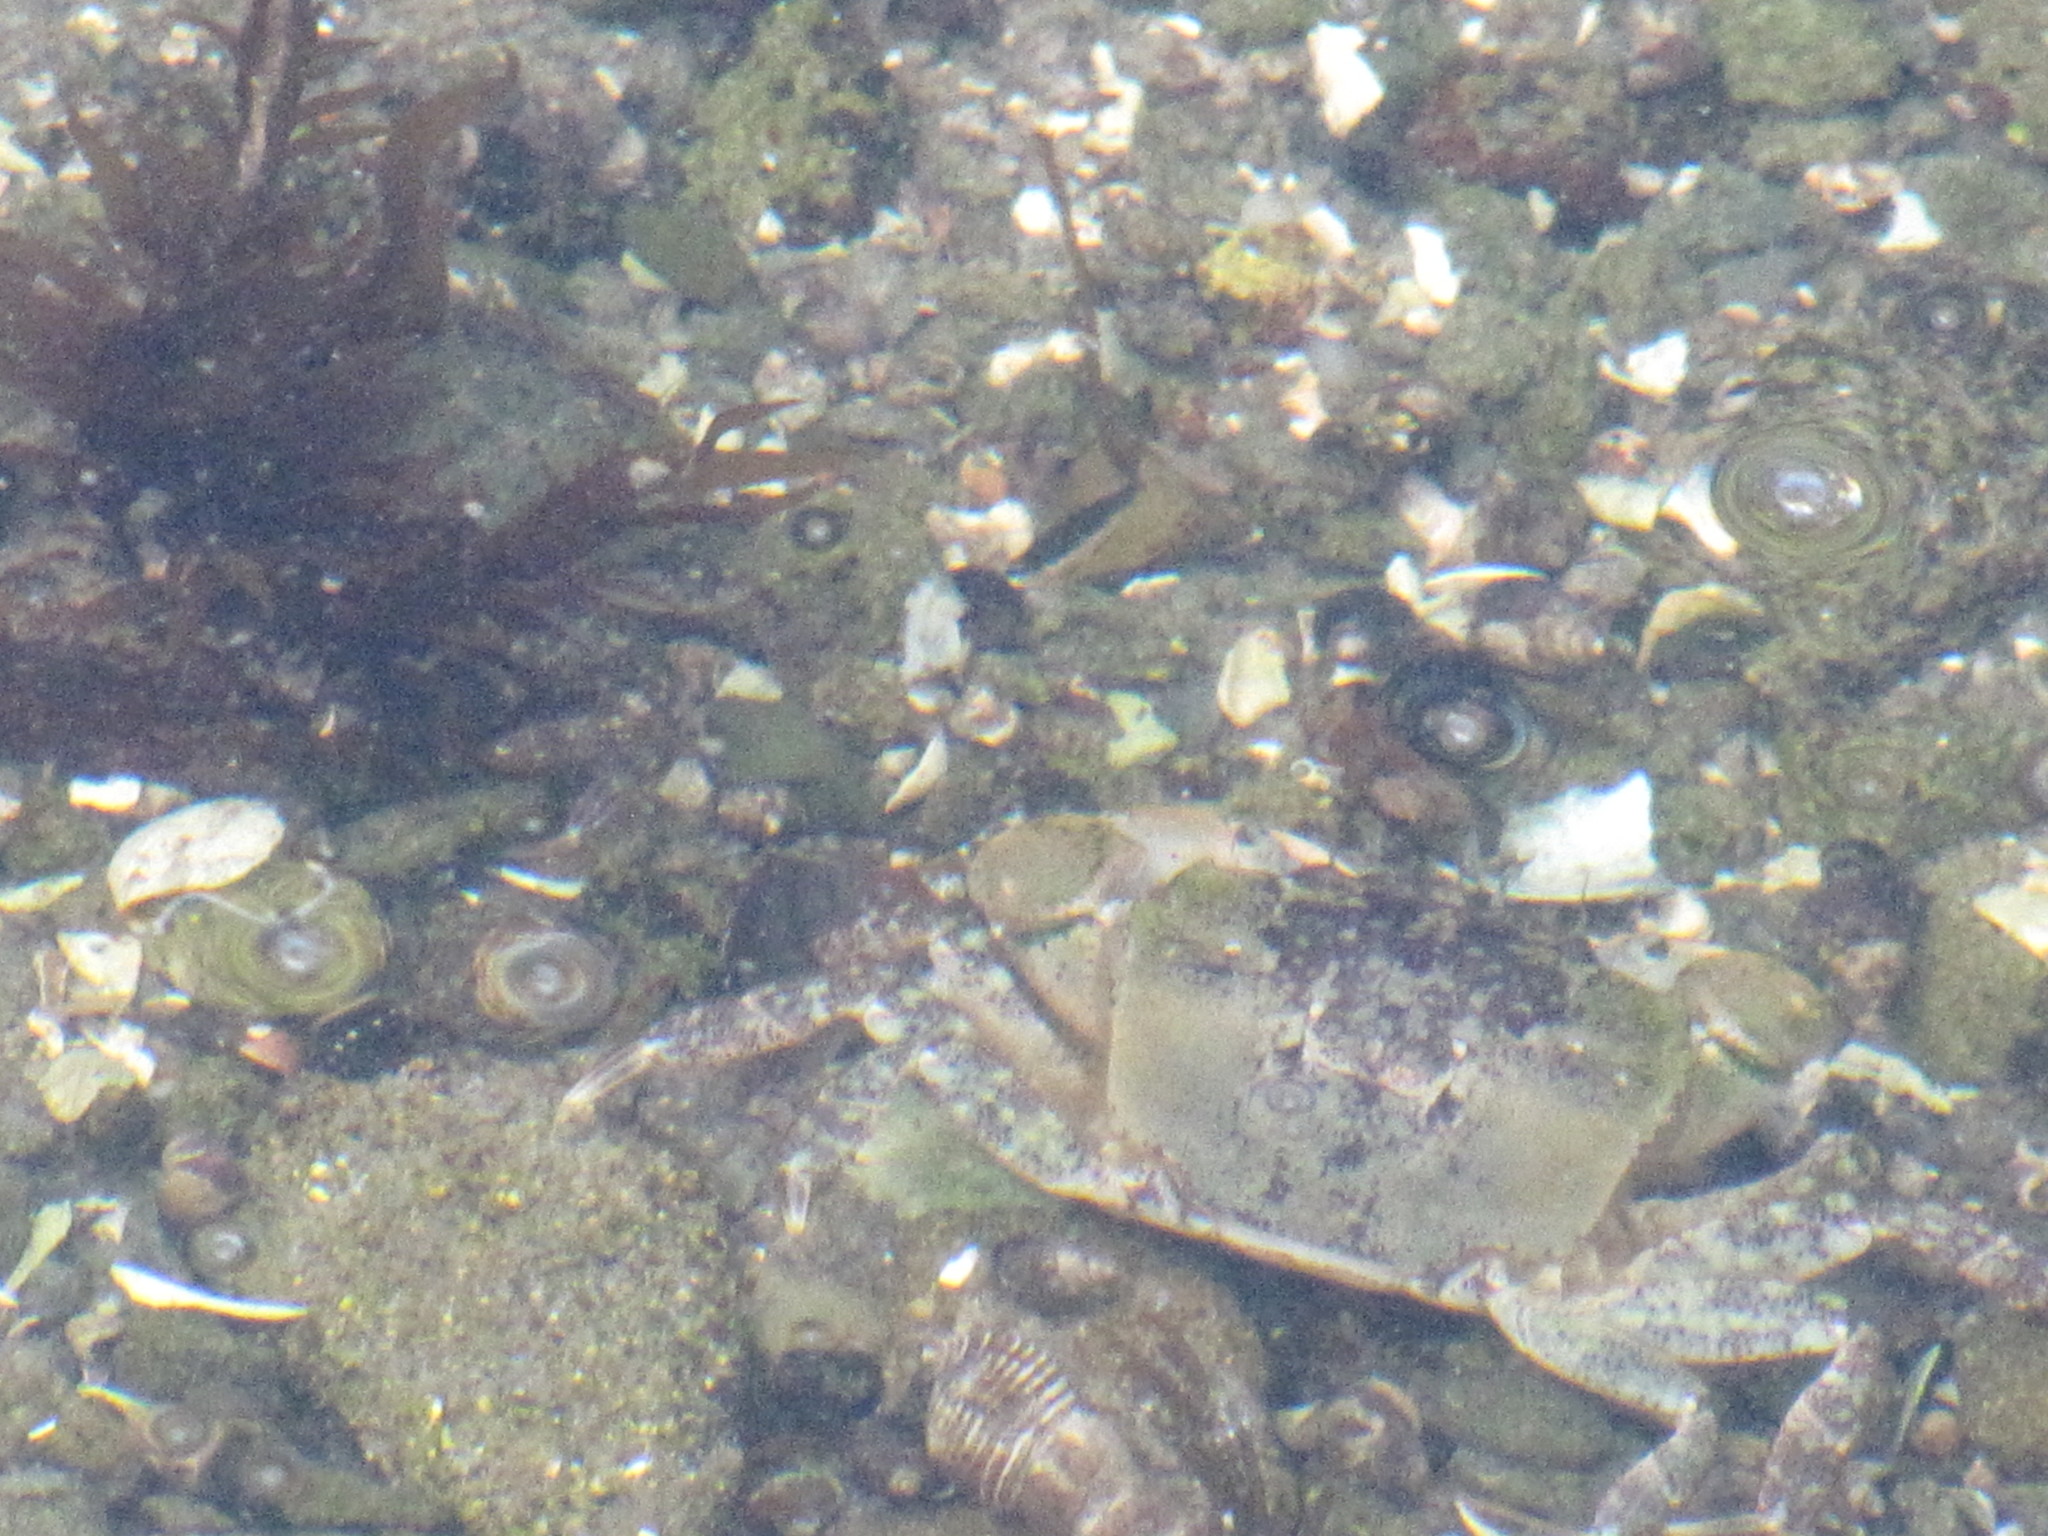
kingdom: Animalia
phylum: Arthropoda
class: Malacostraca
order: Decapoda
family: Varunidae
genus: Hemigrapsus
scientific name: Hemigrapsus oregonensis
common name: Yellow shore crab
